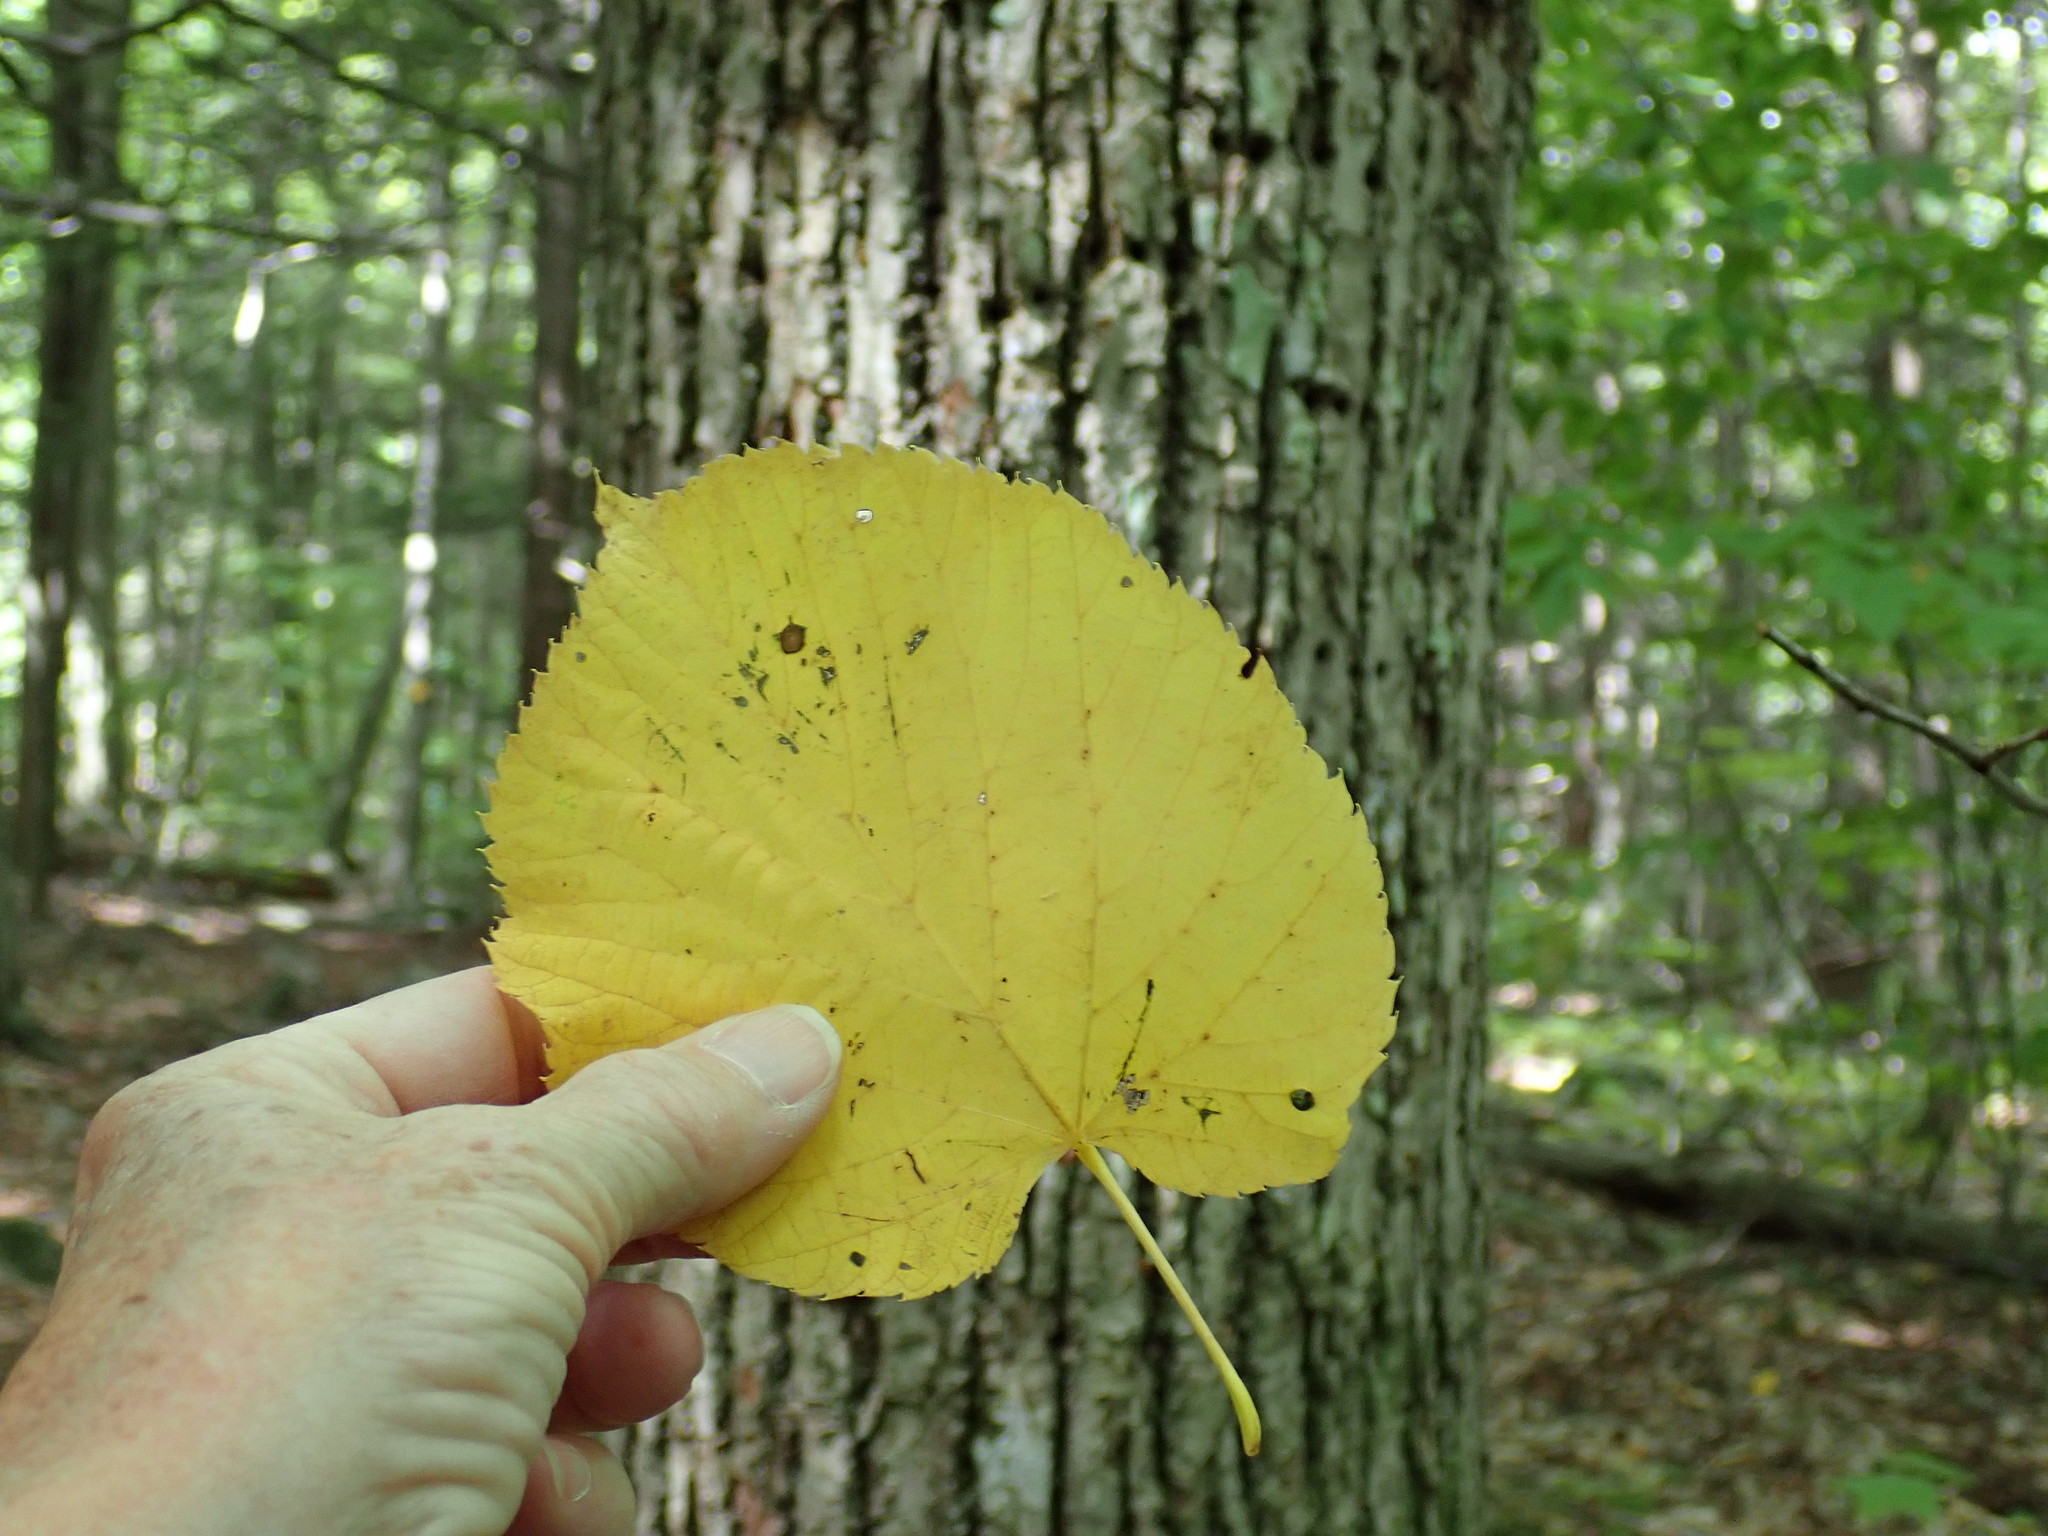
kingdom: Plantae
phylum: Tracheophyta
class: Magnoliopsida
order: Malvales
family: Malvaceae
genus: Tilia
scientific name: Tilia americana
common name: Basswood
